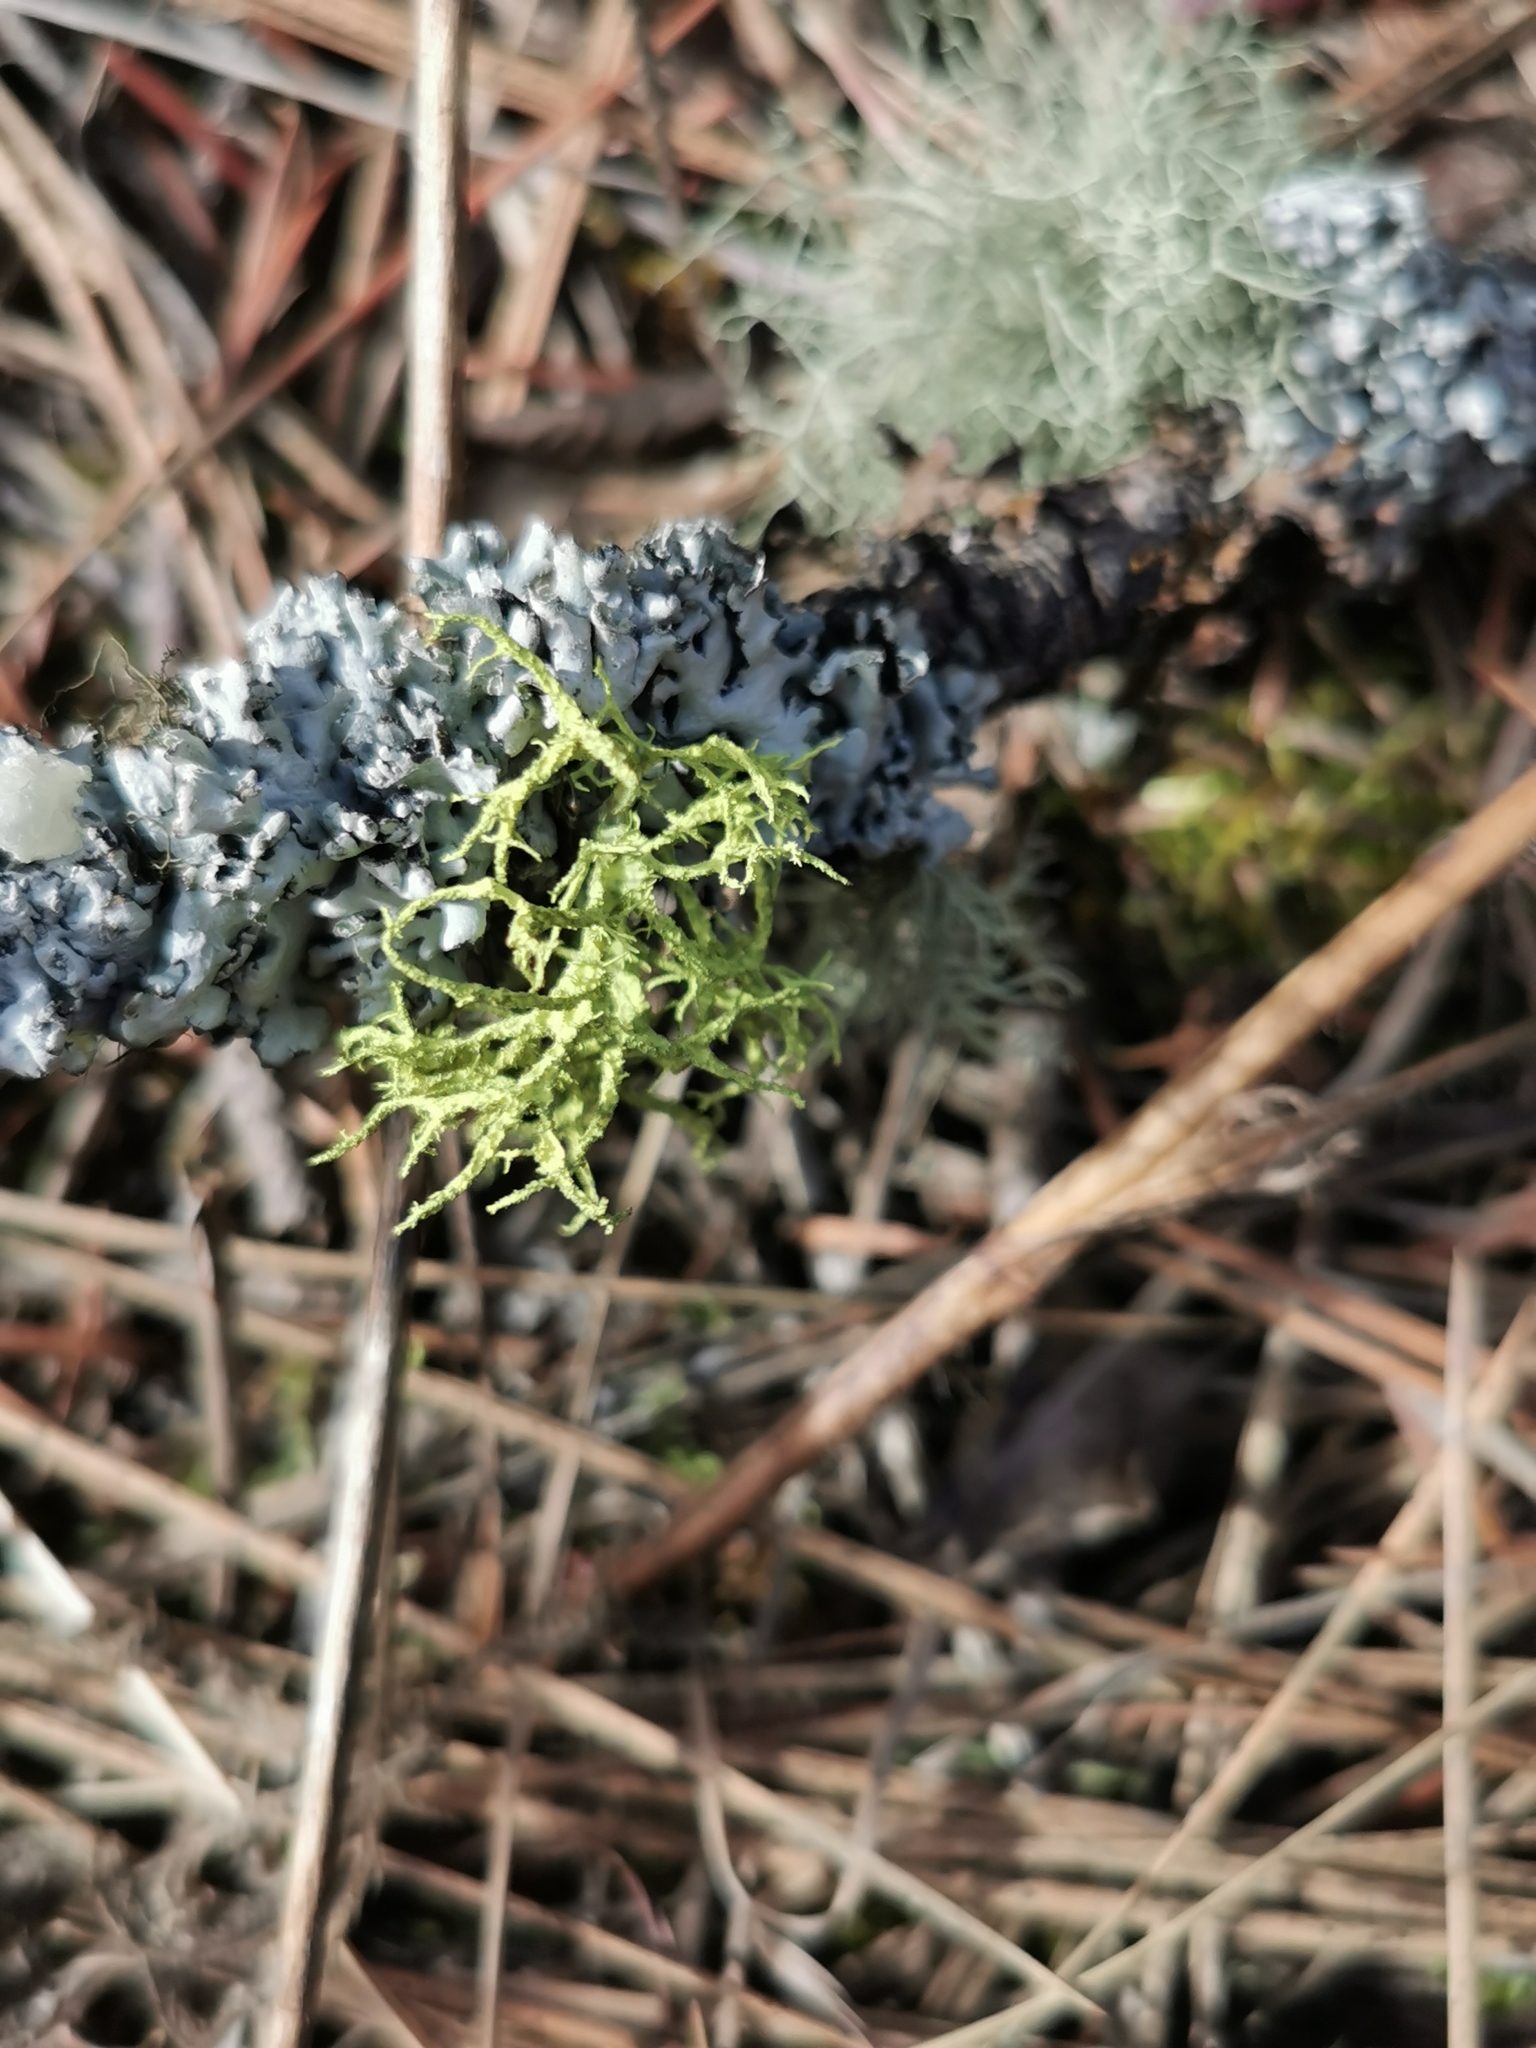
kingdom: Fungi
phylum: Ascomycota
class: Lecanoromycetes
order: Lecanorales
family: Parmeliaceae
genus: Letharia
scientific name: Letharia vulpina
